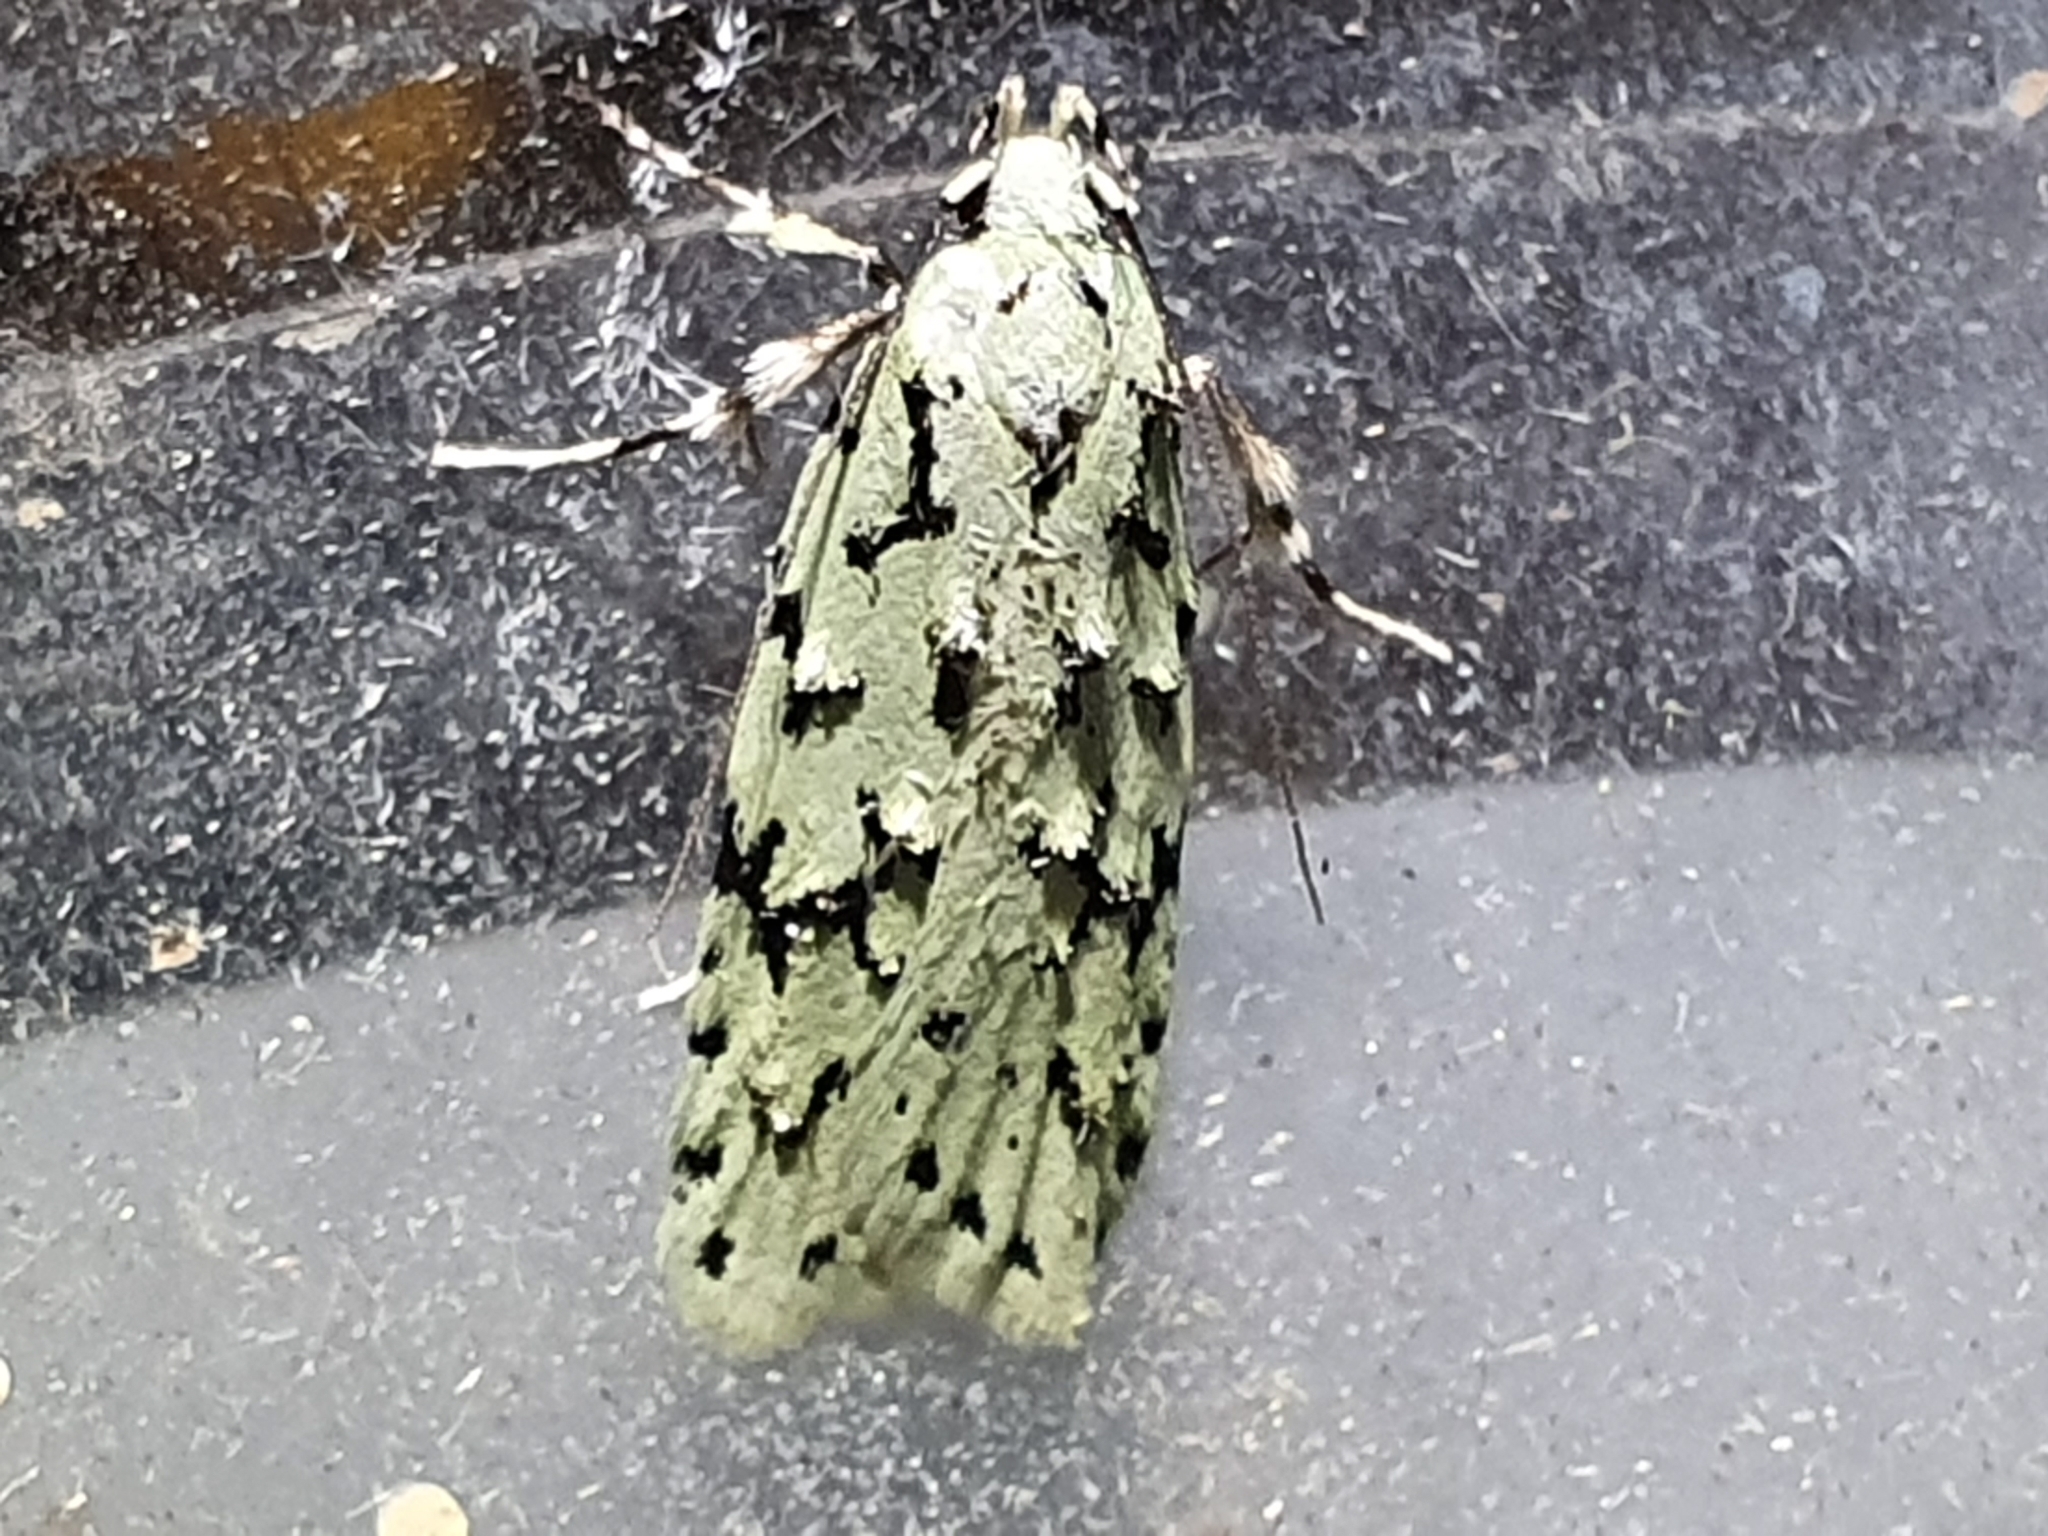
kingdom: Animalia
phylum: Arthropoda
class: Insecta
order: Lepidoptera
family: Oecophoridae
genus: Izatha
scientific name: Izatha huttoni
